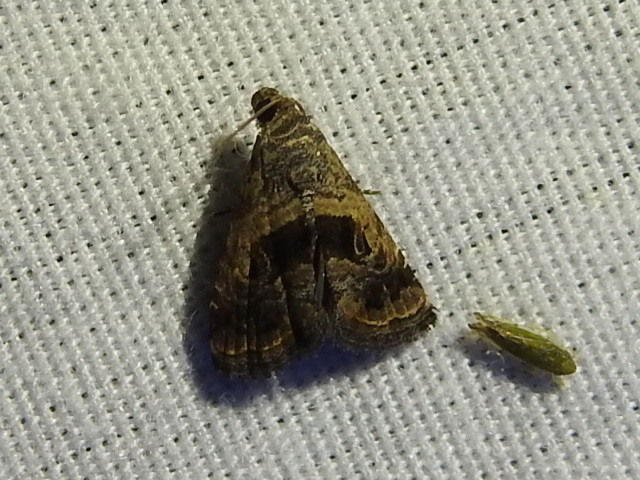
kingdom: Animalia
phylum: Arthropoda
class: Insecta
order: Lepidoptera
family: Noctuidae
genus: Tripudia
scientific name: Tripudia quadrifera
